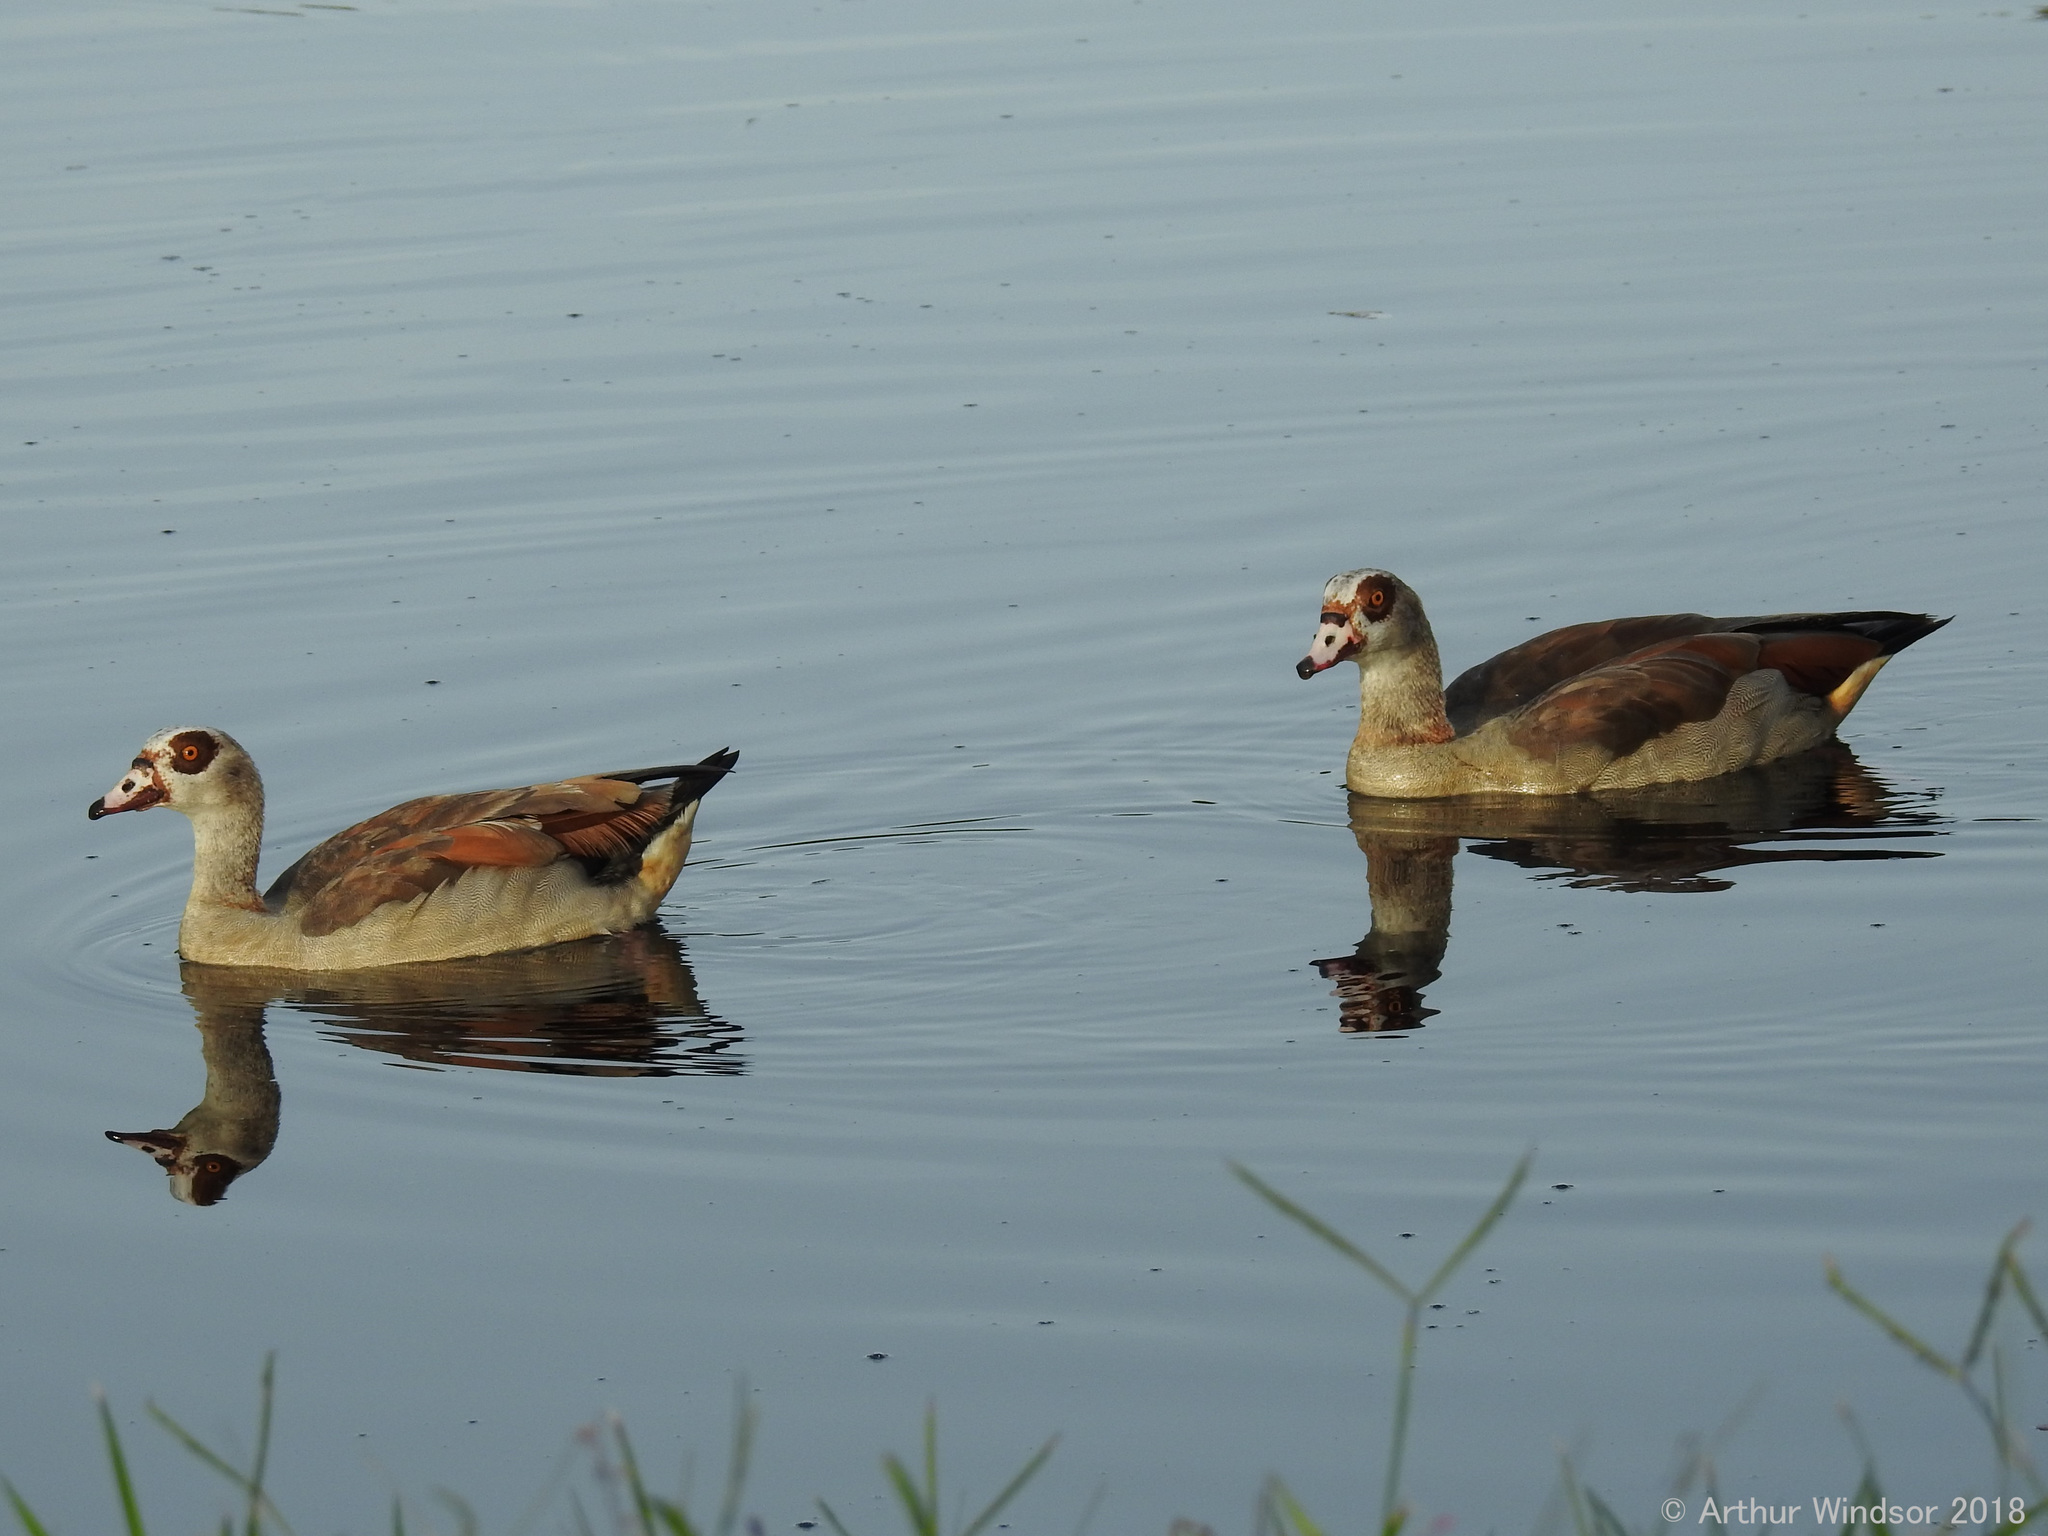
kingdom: Animalia
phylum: Chordata
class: Aves
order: Anseriformes
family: Anatidae
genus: Alopochen
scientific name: Alopochen aegyptiaca
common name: Egyptian goose
